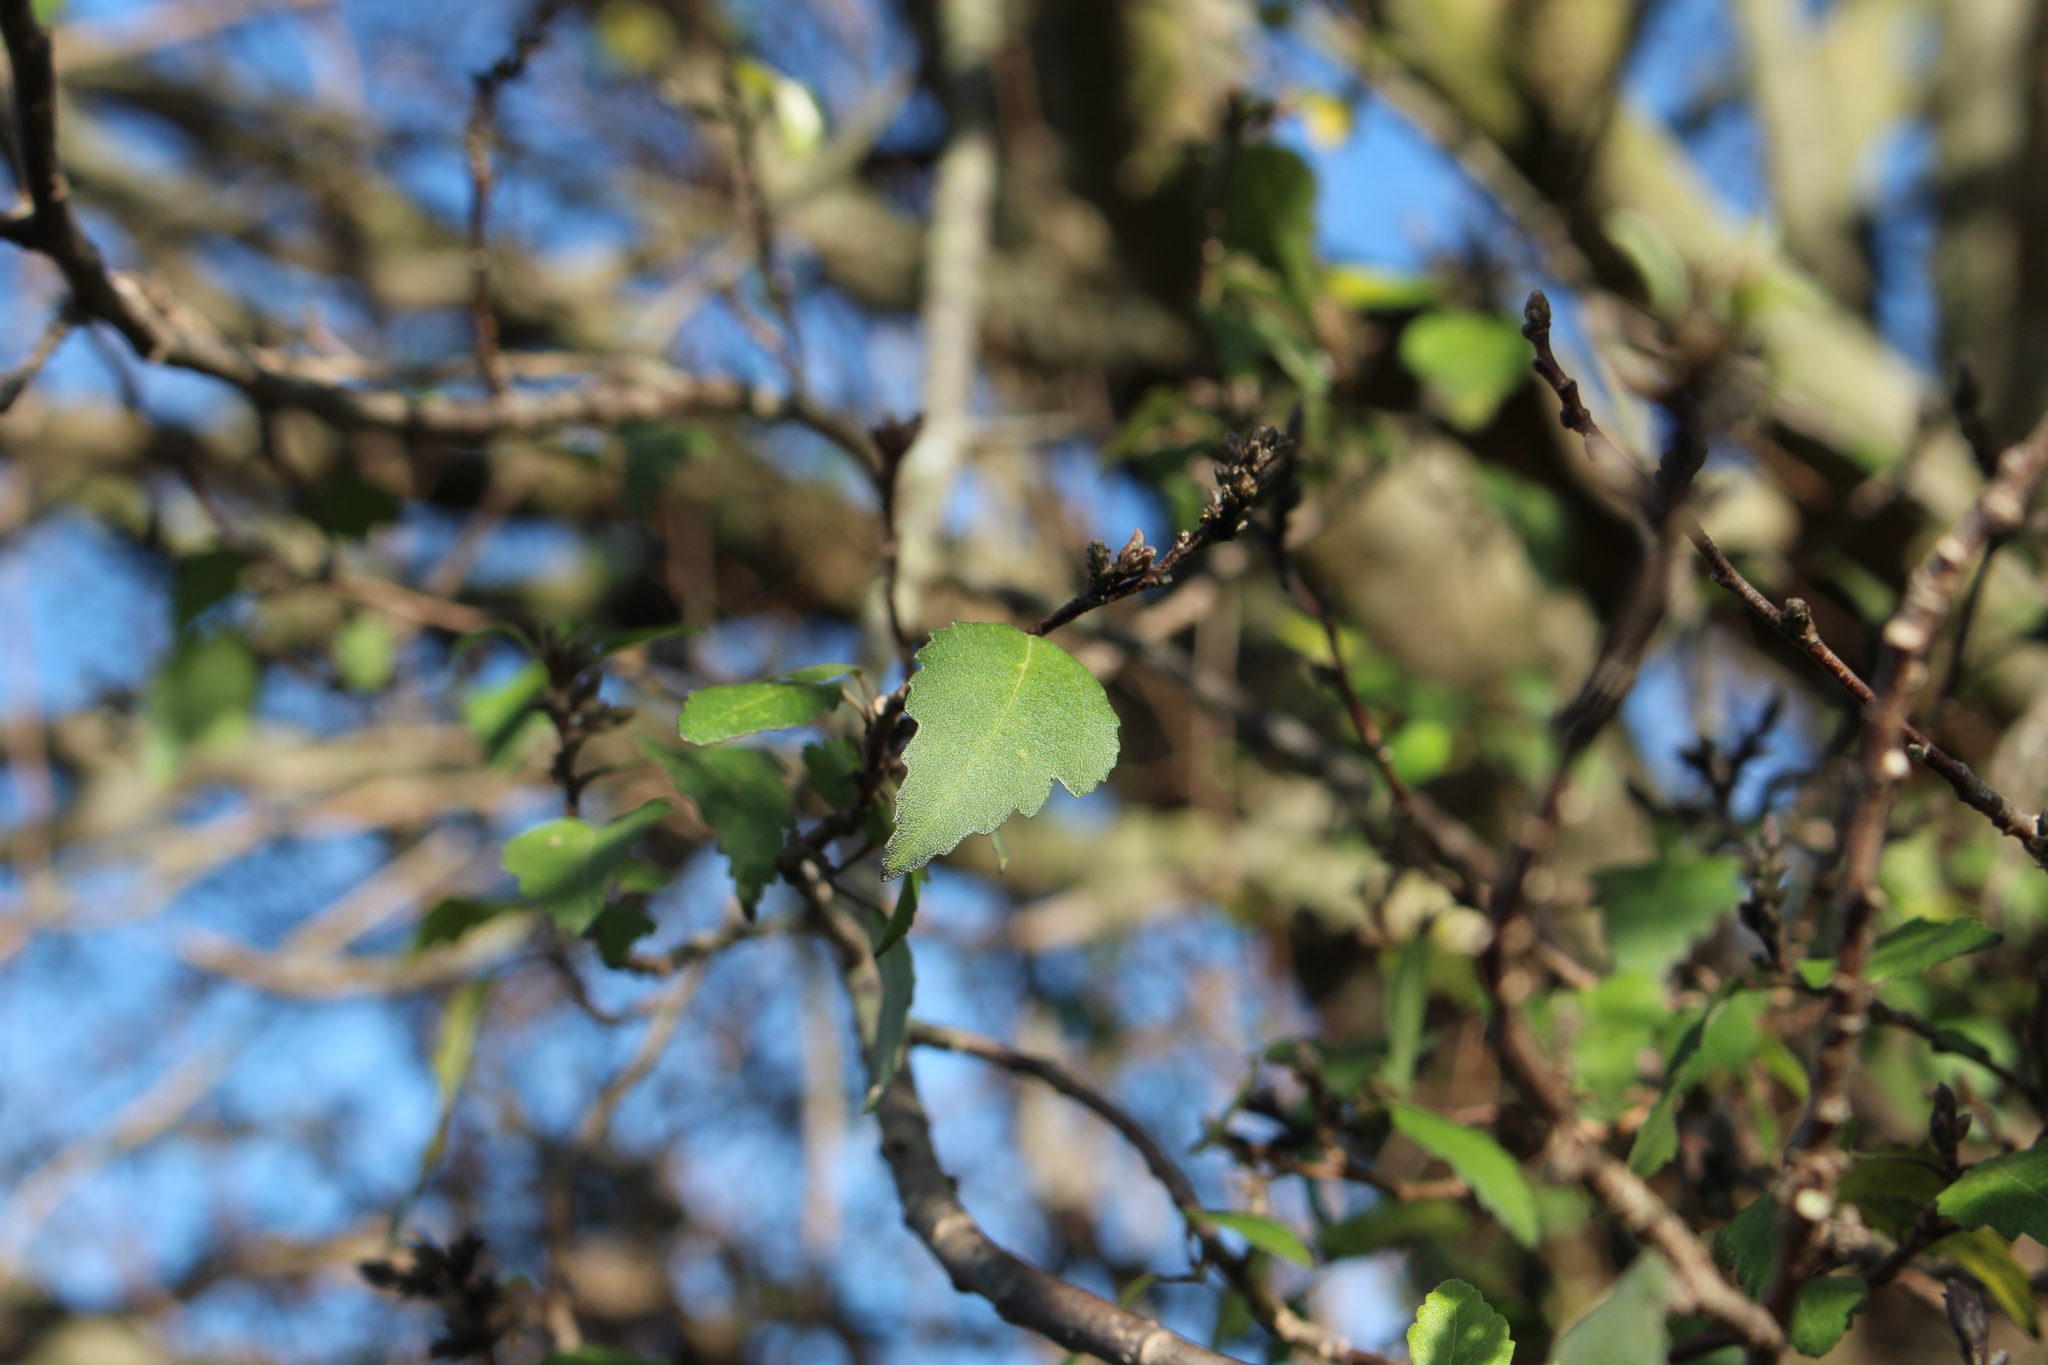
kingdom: Plantae
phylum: Tracheophyta
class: Magnoliopsida
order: Malvales
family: Malvaceae
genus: Plagianthus
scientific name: Plagianthus regius
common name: Manatu
